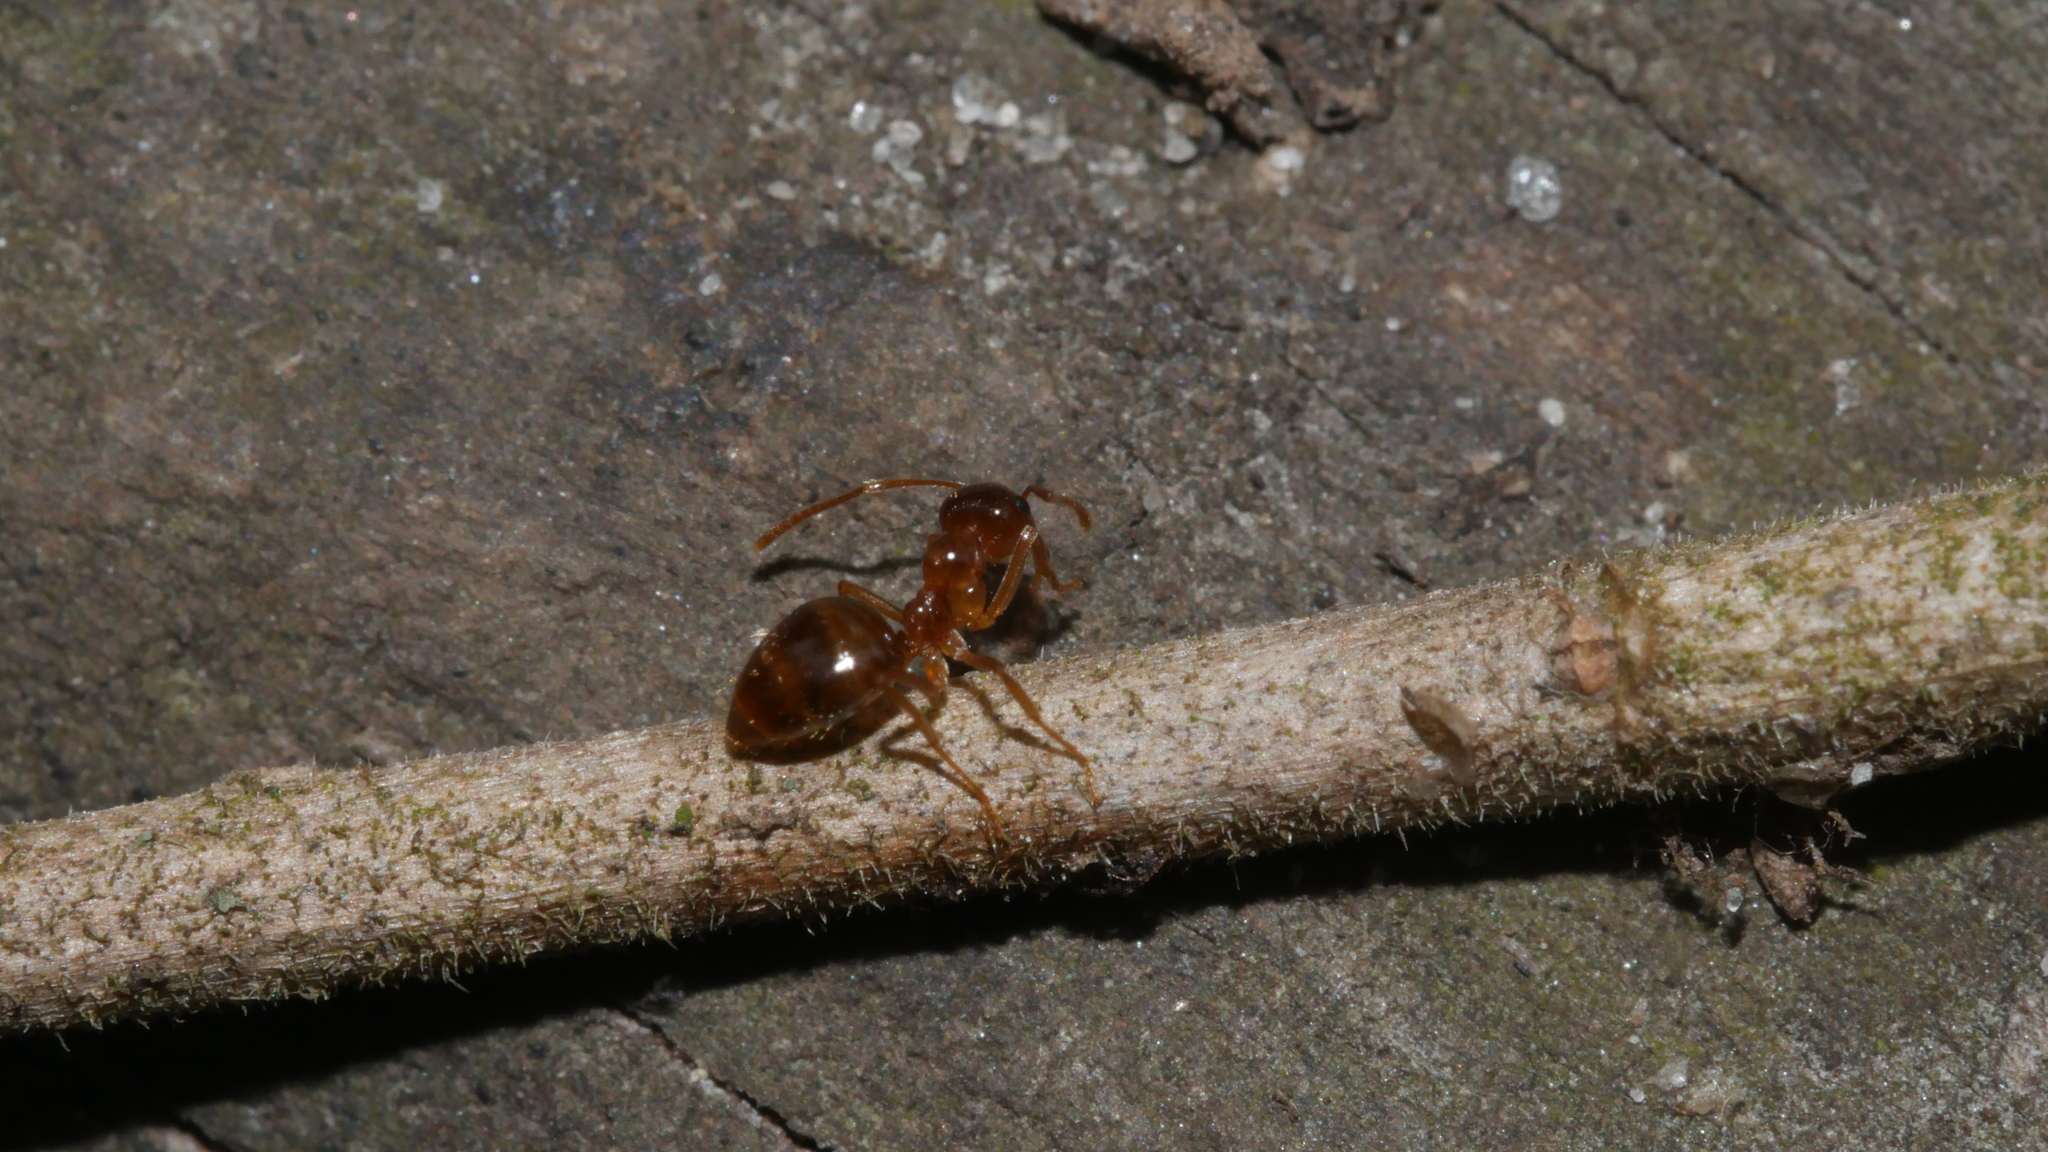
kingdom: Animalia
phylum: Arthropoda
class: Insecta
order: Hymenoptera
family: Formicidae
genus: Prenolepis
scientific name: Prenolepis imparis
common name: Small honey ant
